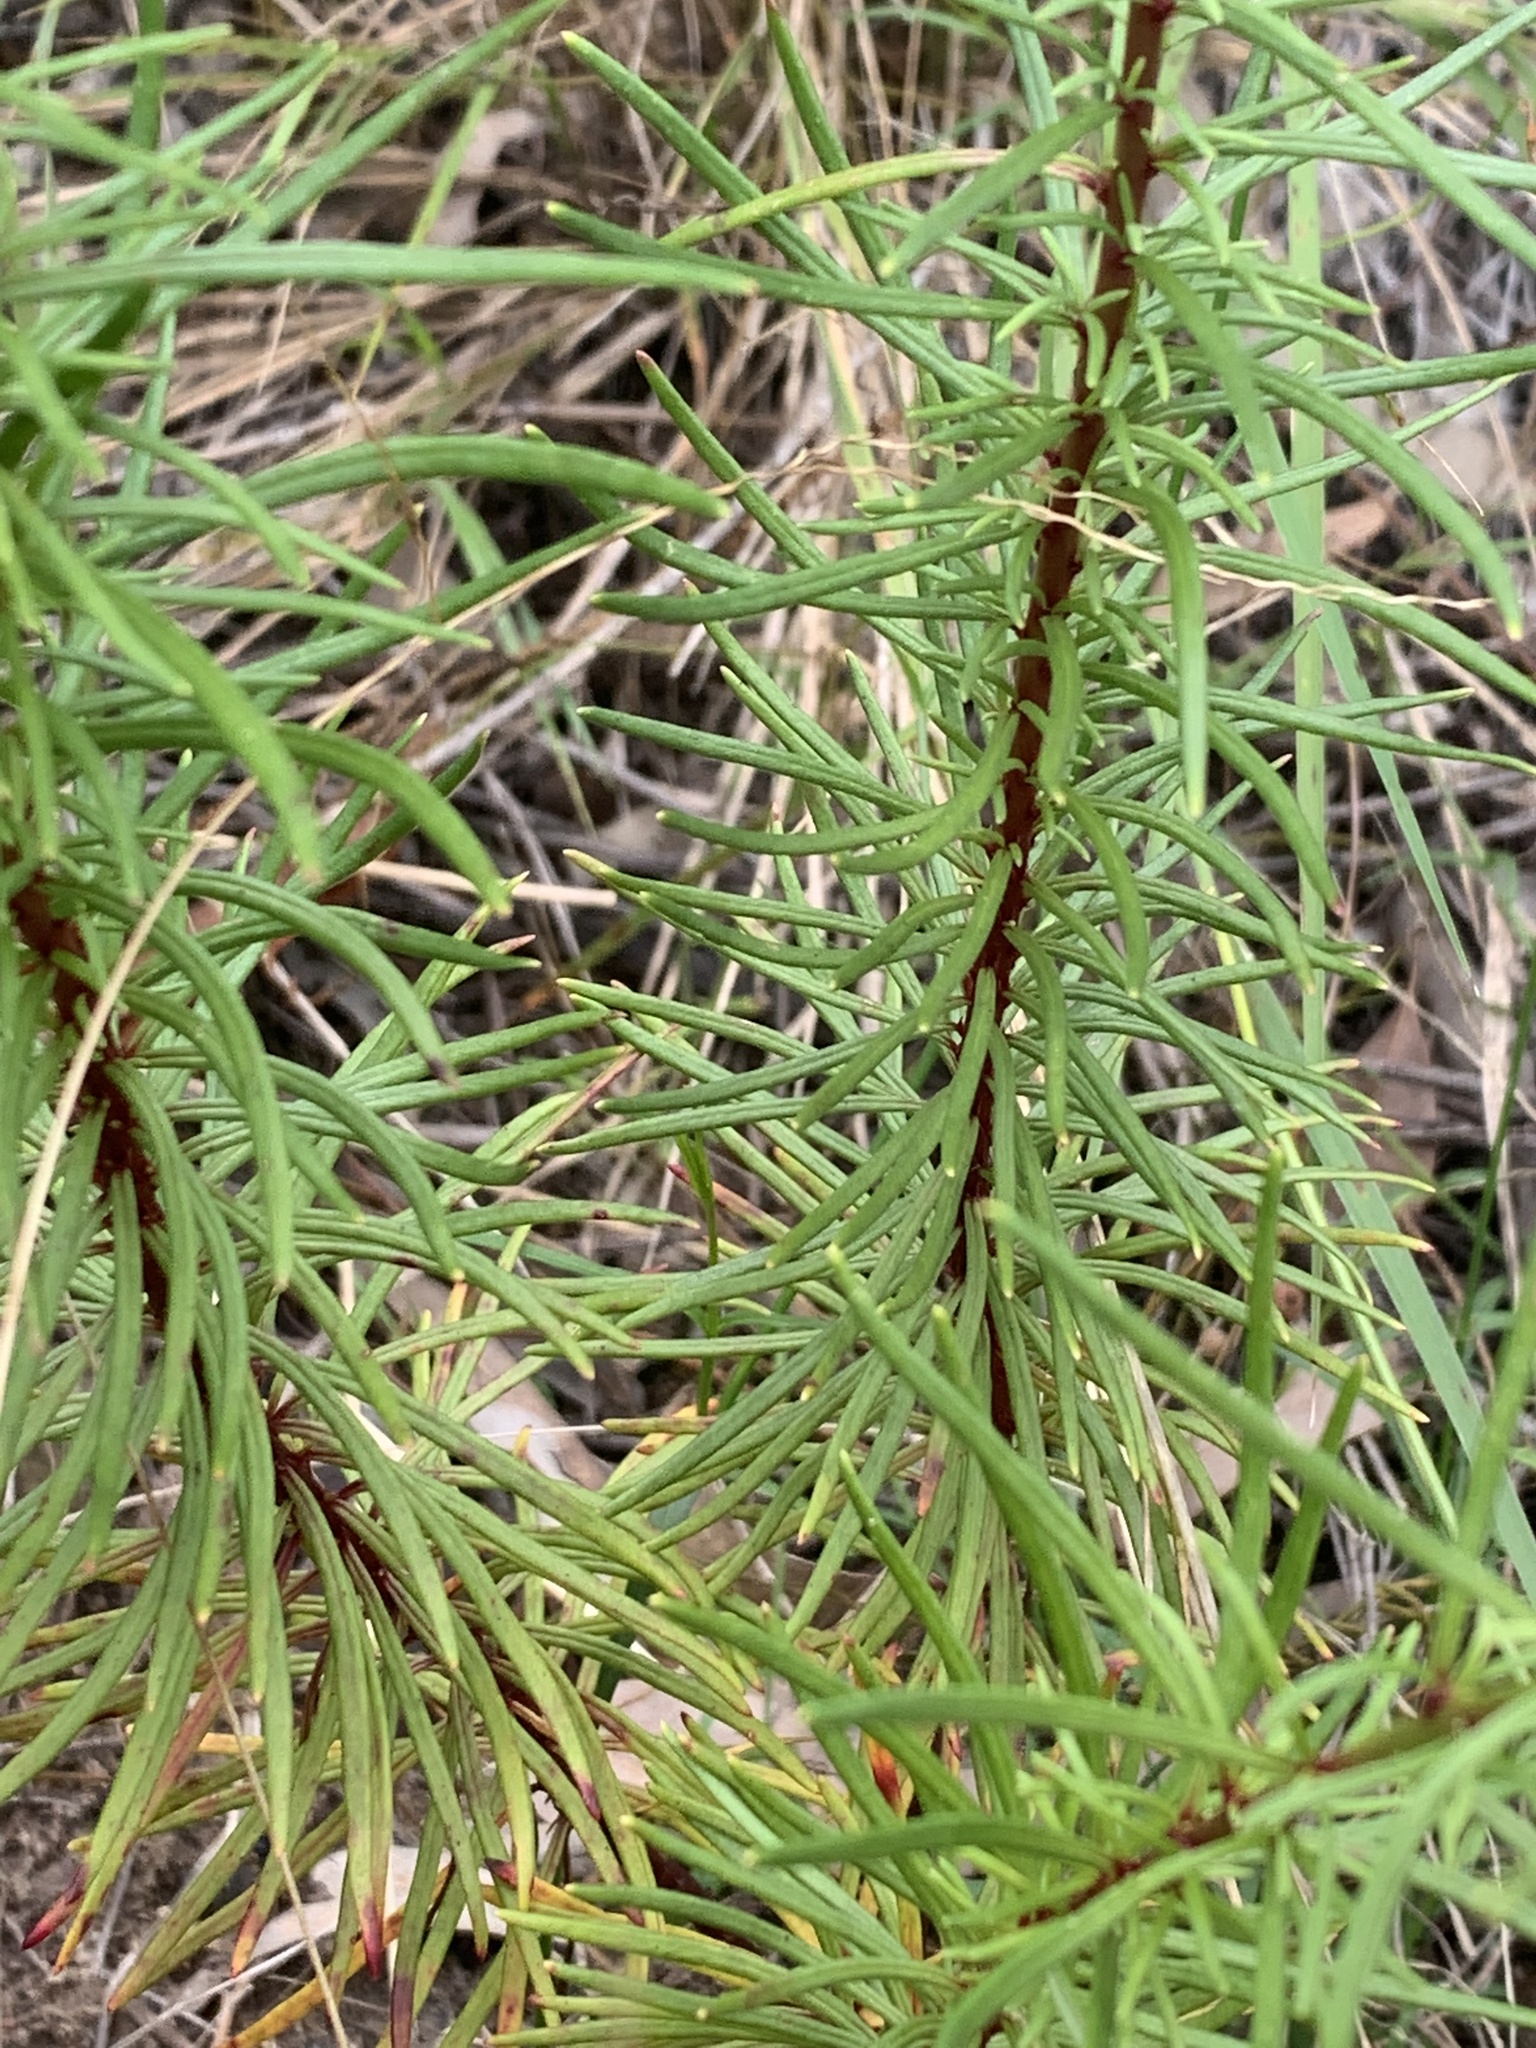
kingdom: Plantae
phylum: Tracheophyta
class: Magnoliopsida
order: Malpighiales
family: Phyllanthaceae
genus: Poranthera
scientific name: Poranthera corymbosa
